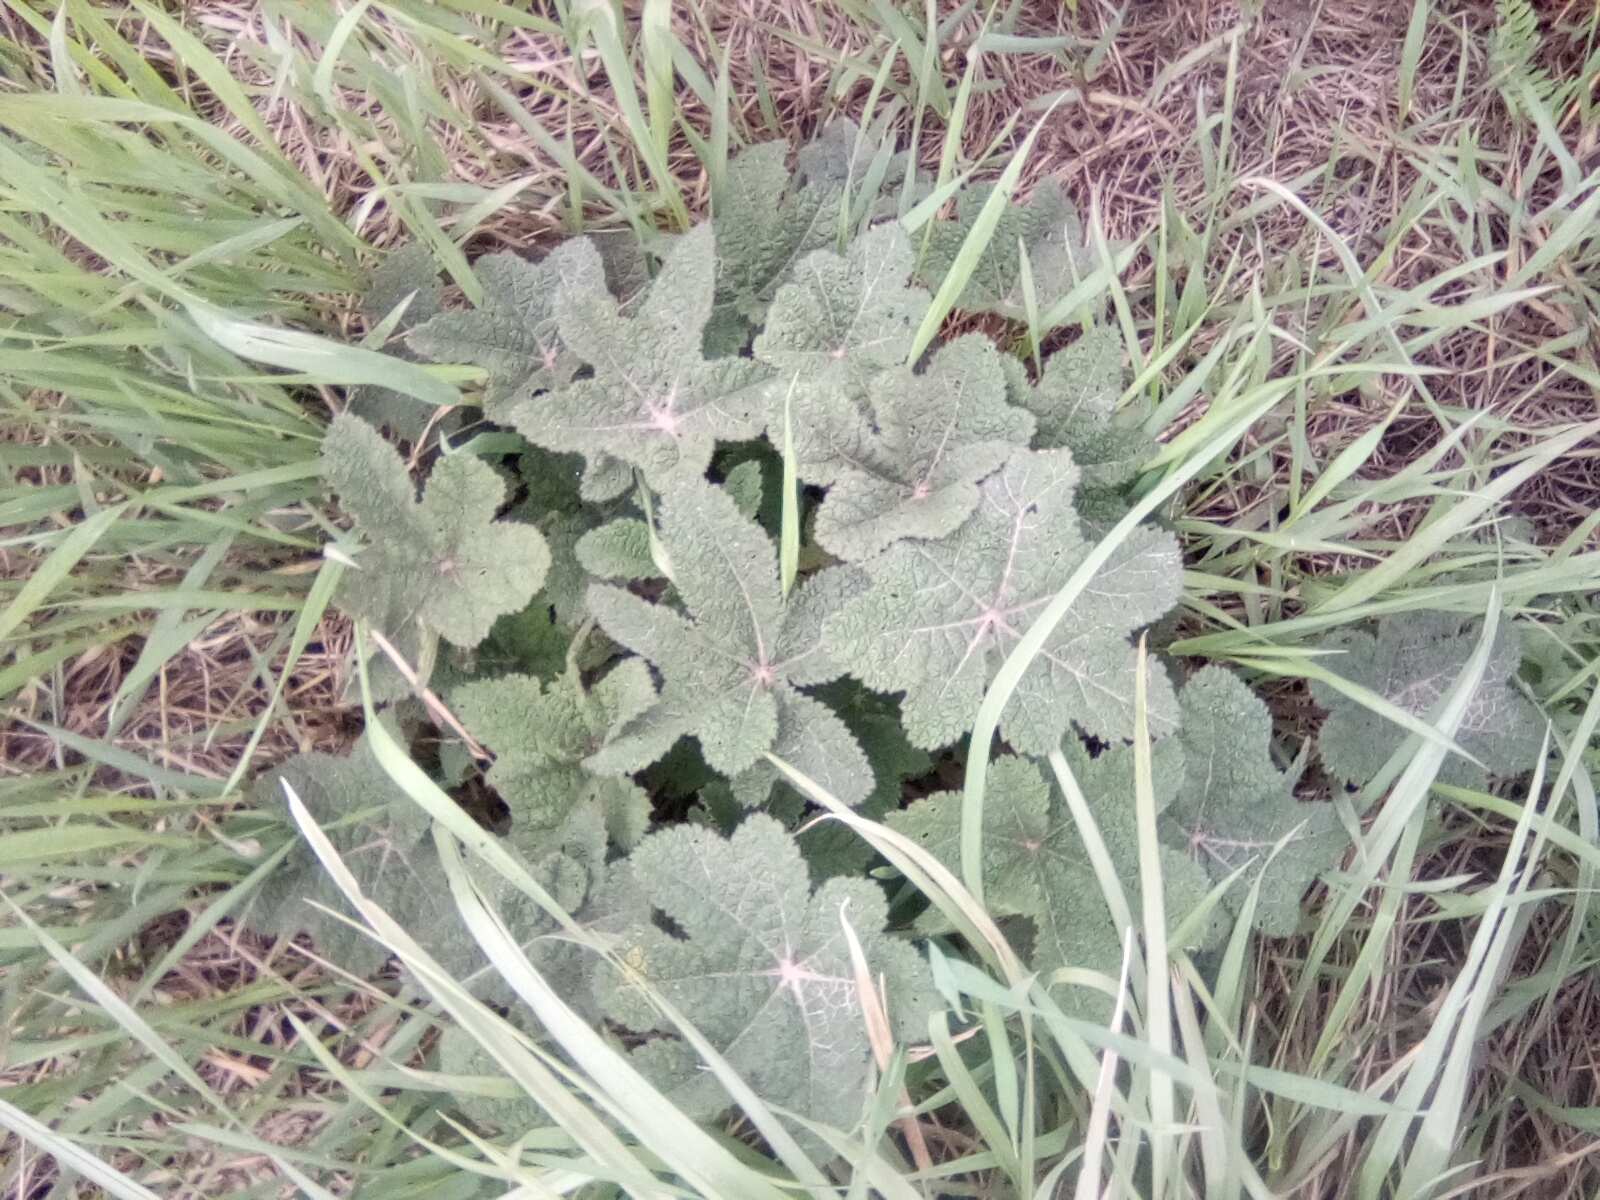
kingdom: Plantae
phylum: Tracheophyta
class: Magnoliopsida
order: Malvales
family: Malvaceae
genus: Alcea
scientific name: Alcea rugosa
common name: Russian hollyhock
